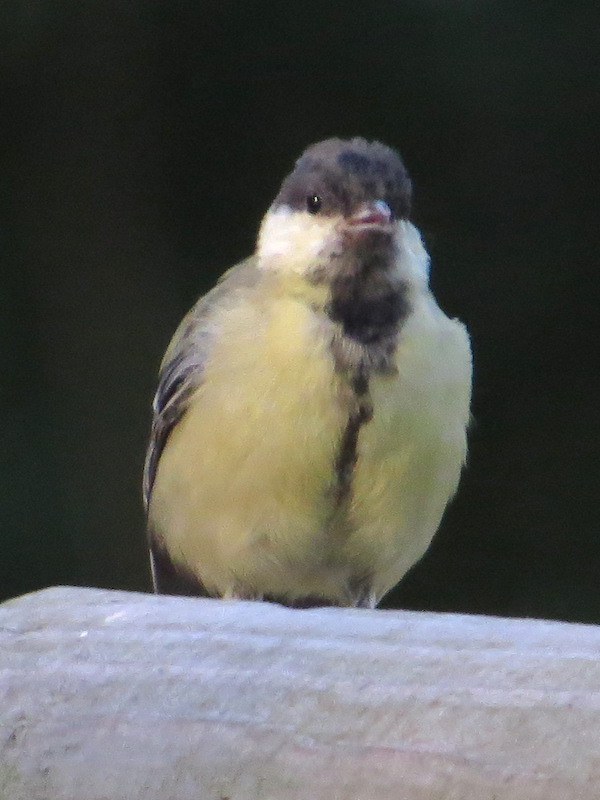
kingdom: Animalia
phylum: Chordata
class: Aves
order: Passeriformes
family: Paridae
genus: Parus
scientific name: Parus major
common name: Great tit
